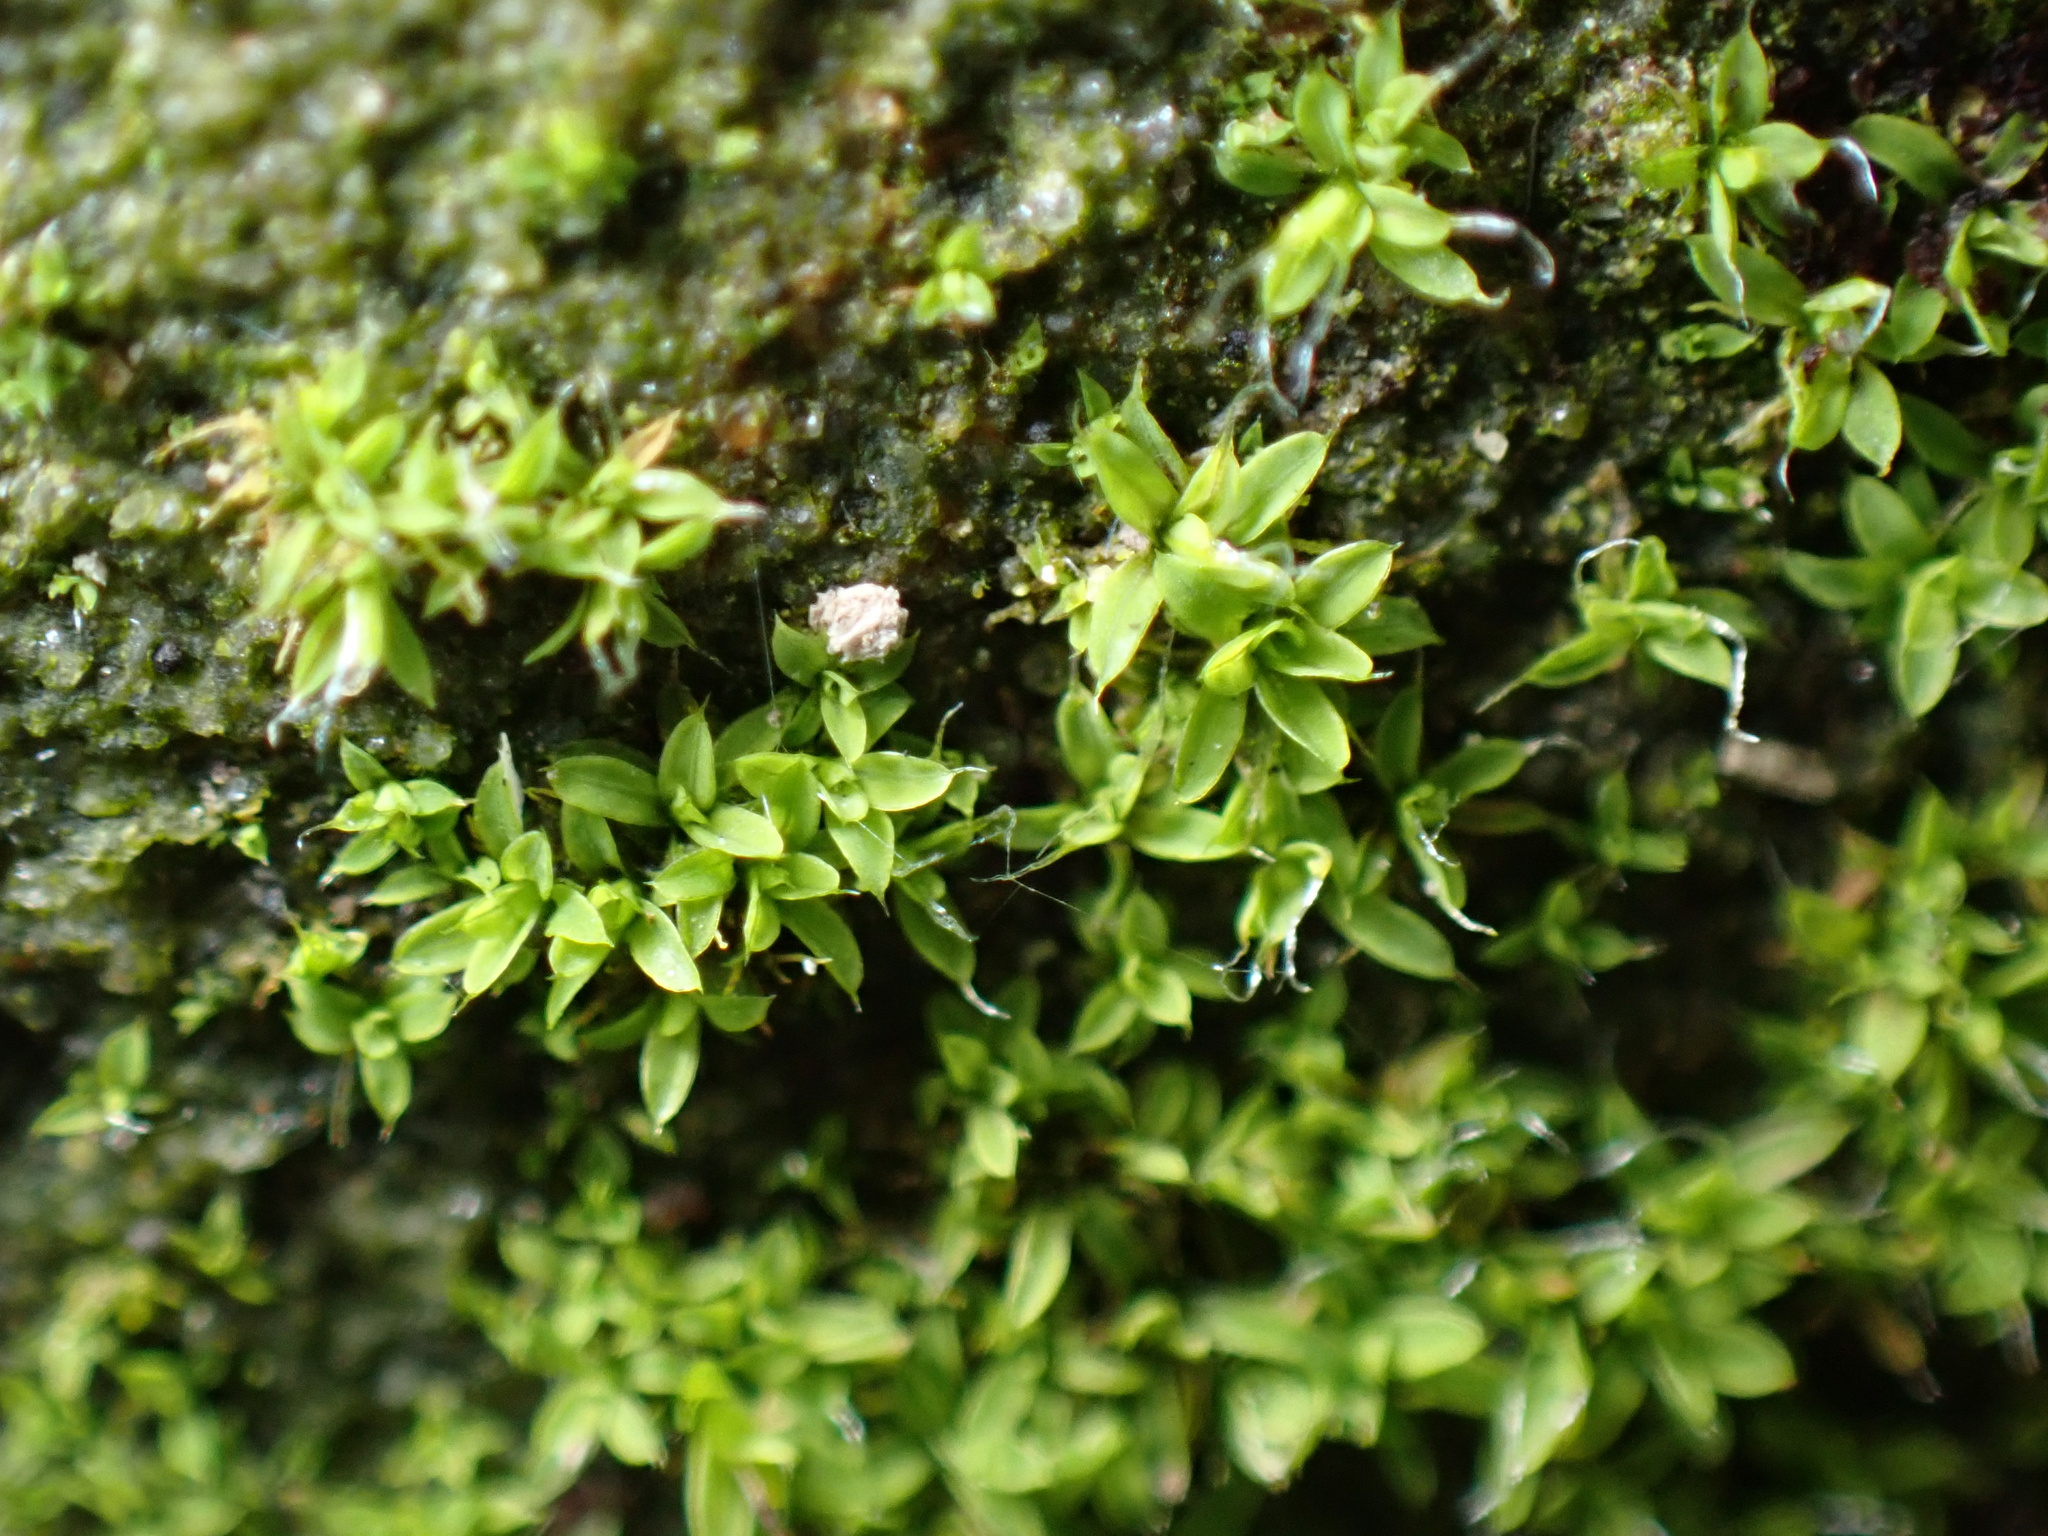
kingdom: Plantae
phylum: Bryophyta
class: Bryopsida
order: Pottiales
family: Pottiaceae
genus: Tortula
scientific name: Tortula muralis
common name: Wall screw-moss
